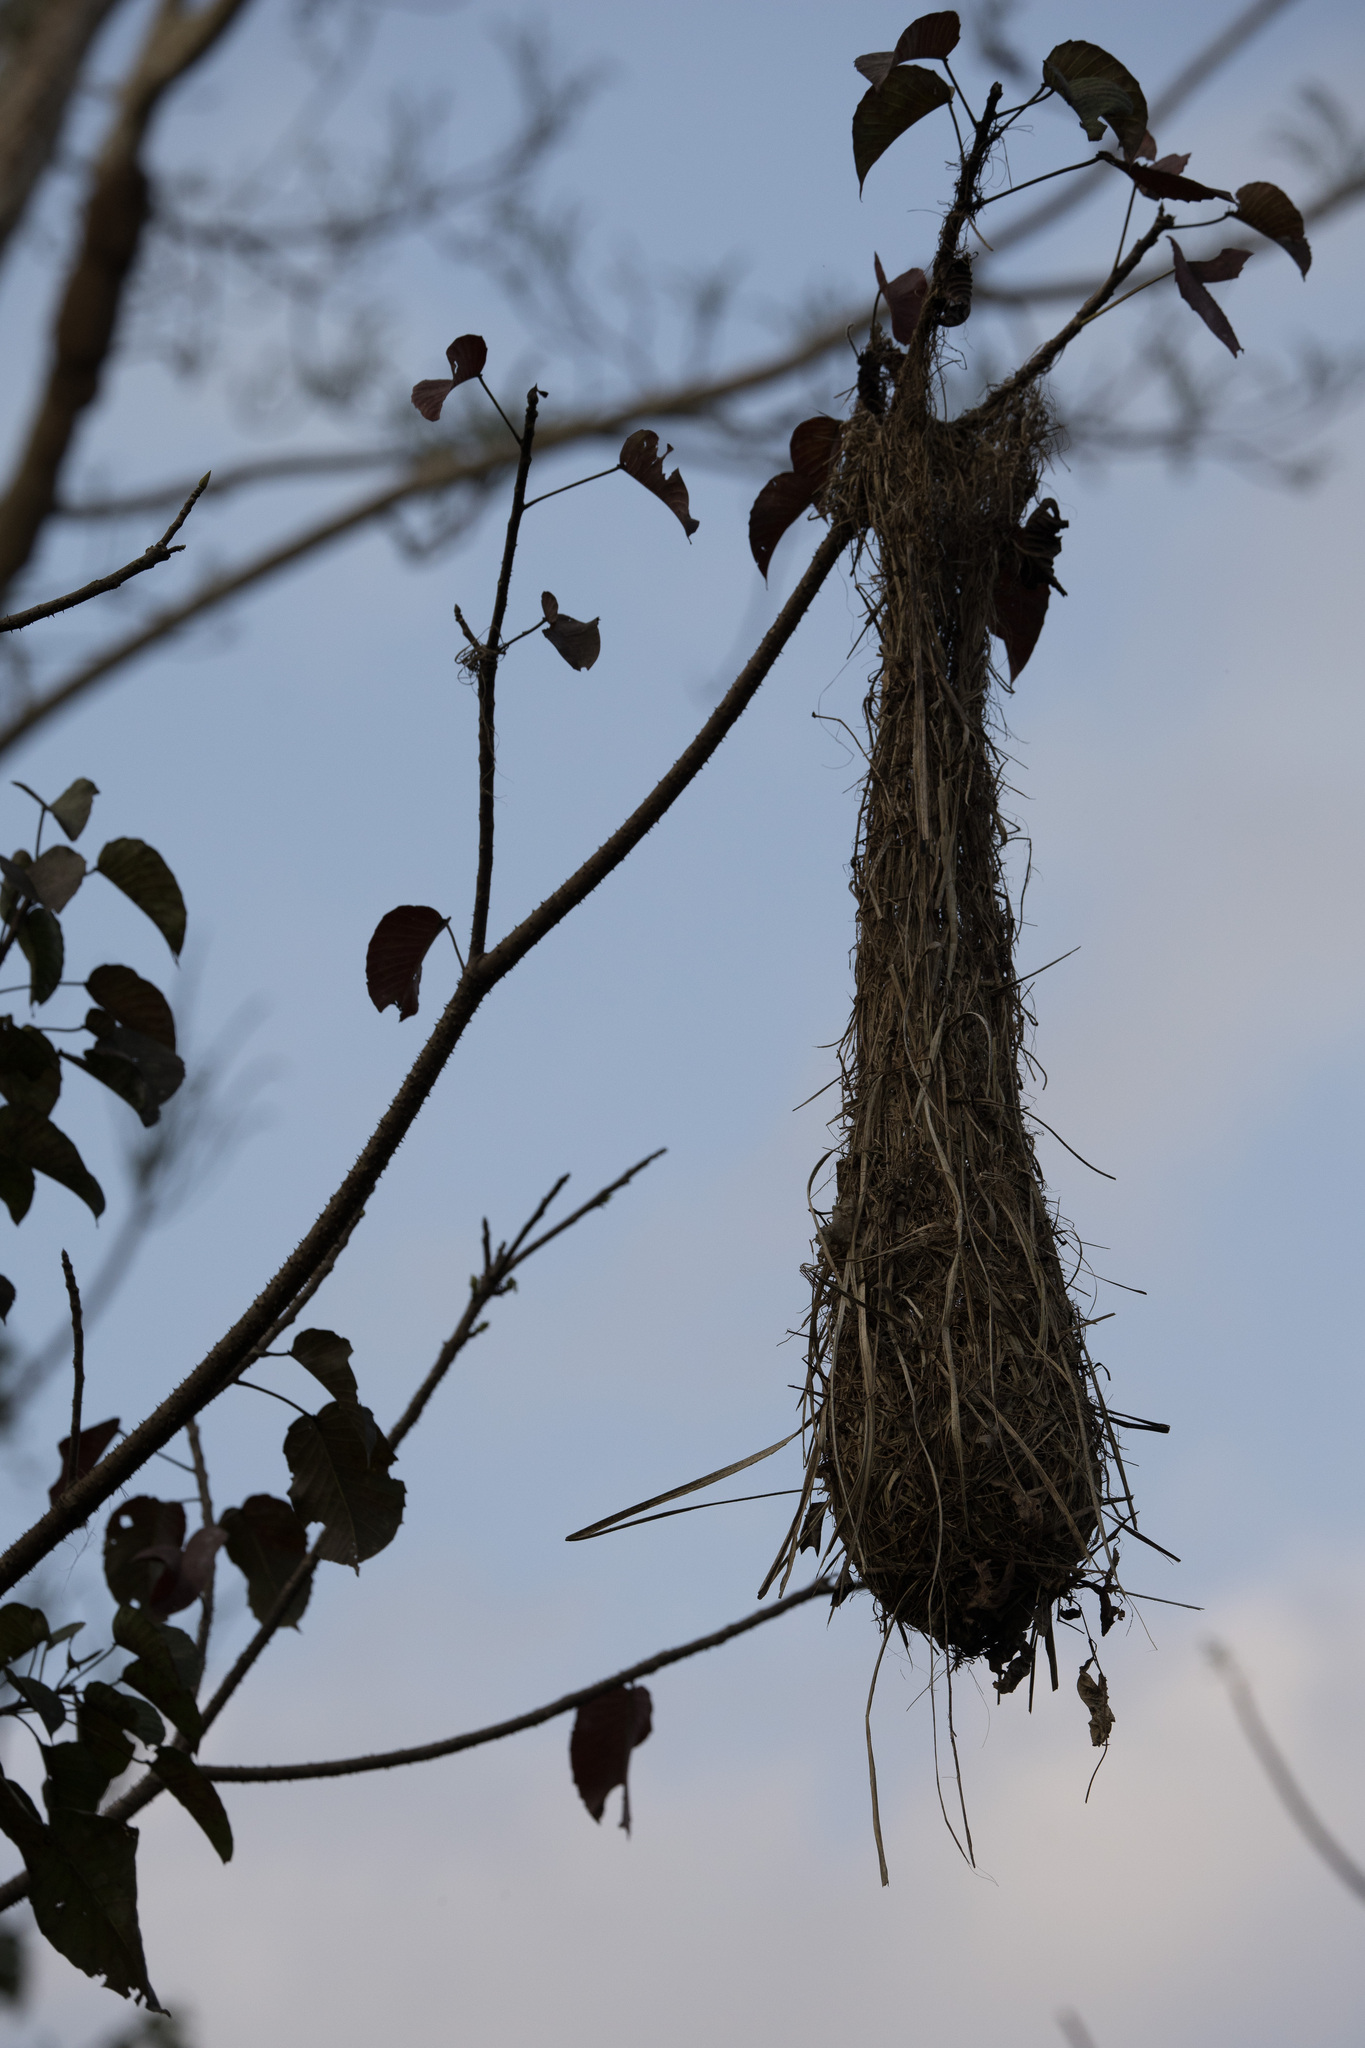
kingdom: Animalia
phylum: Chordata
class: Aves
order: Passeriformes
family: Icteridae
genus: Psarocolius
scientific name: Psarocolius angustifrons
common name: Russet-backed oropendola
